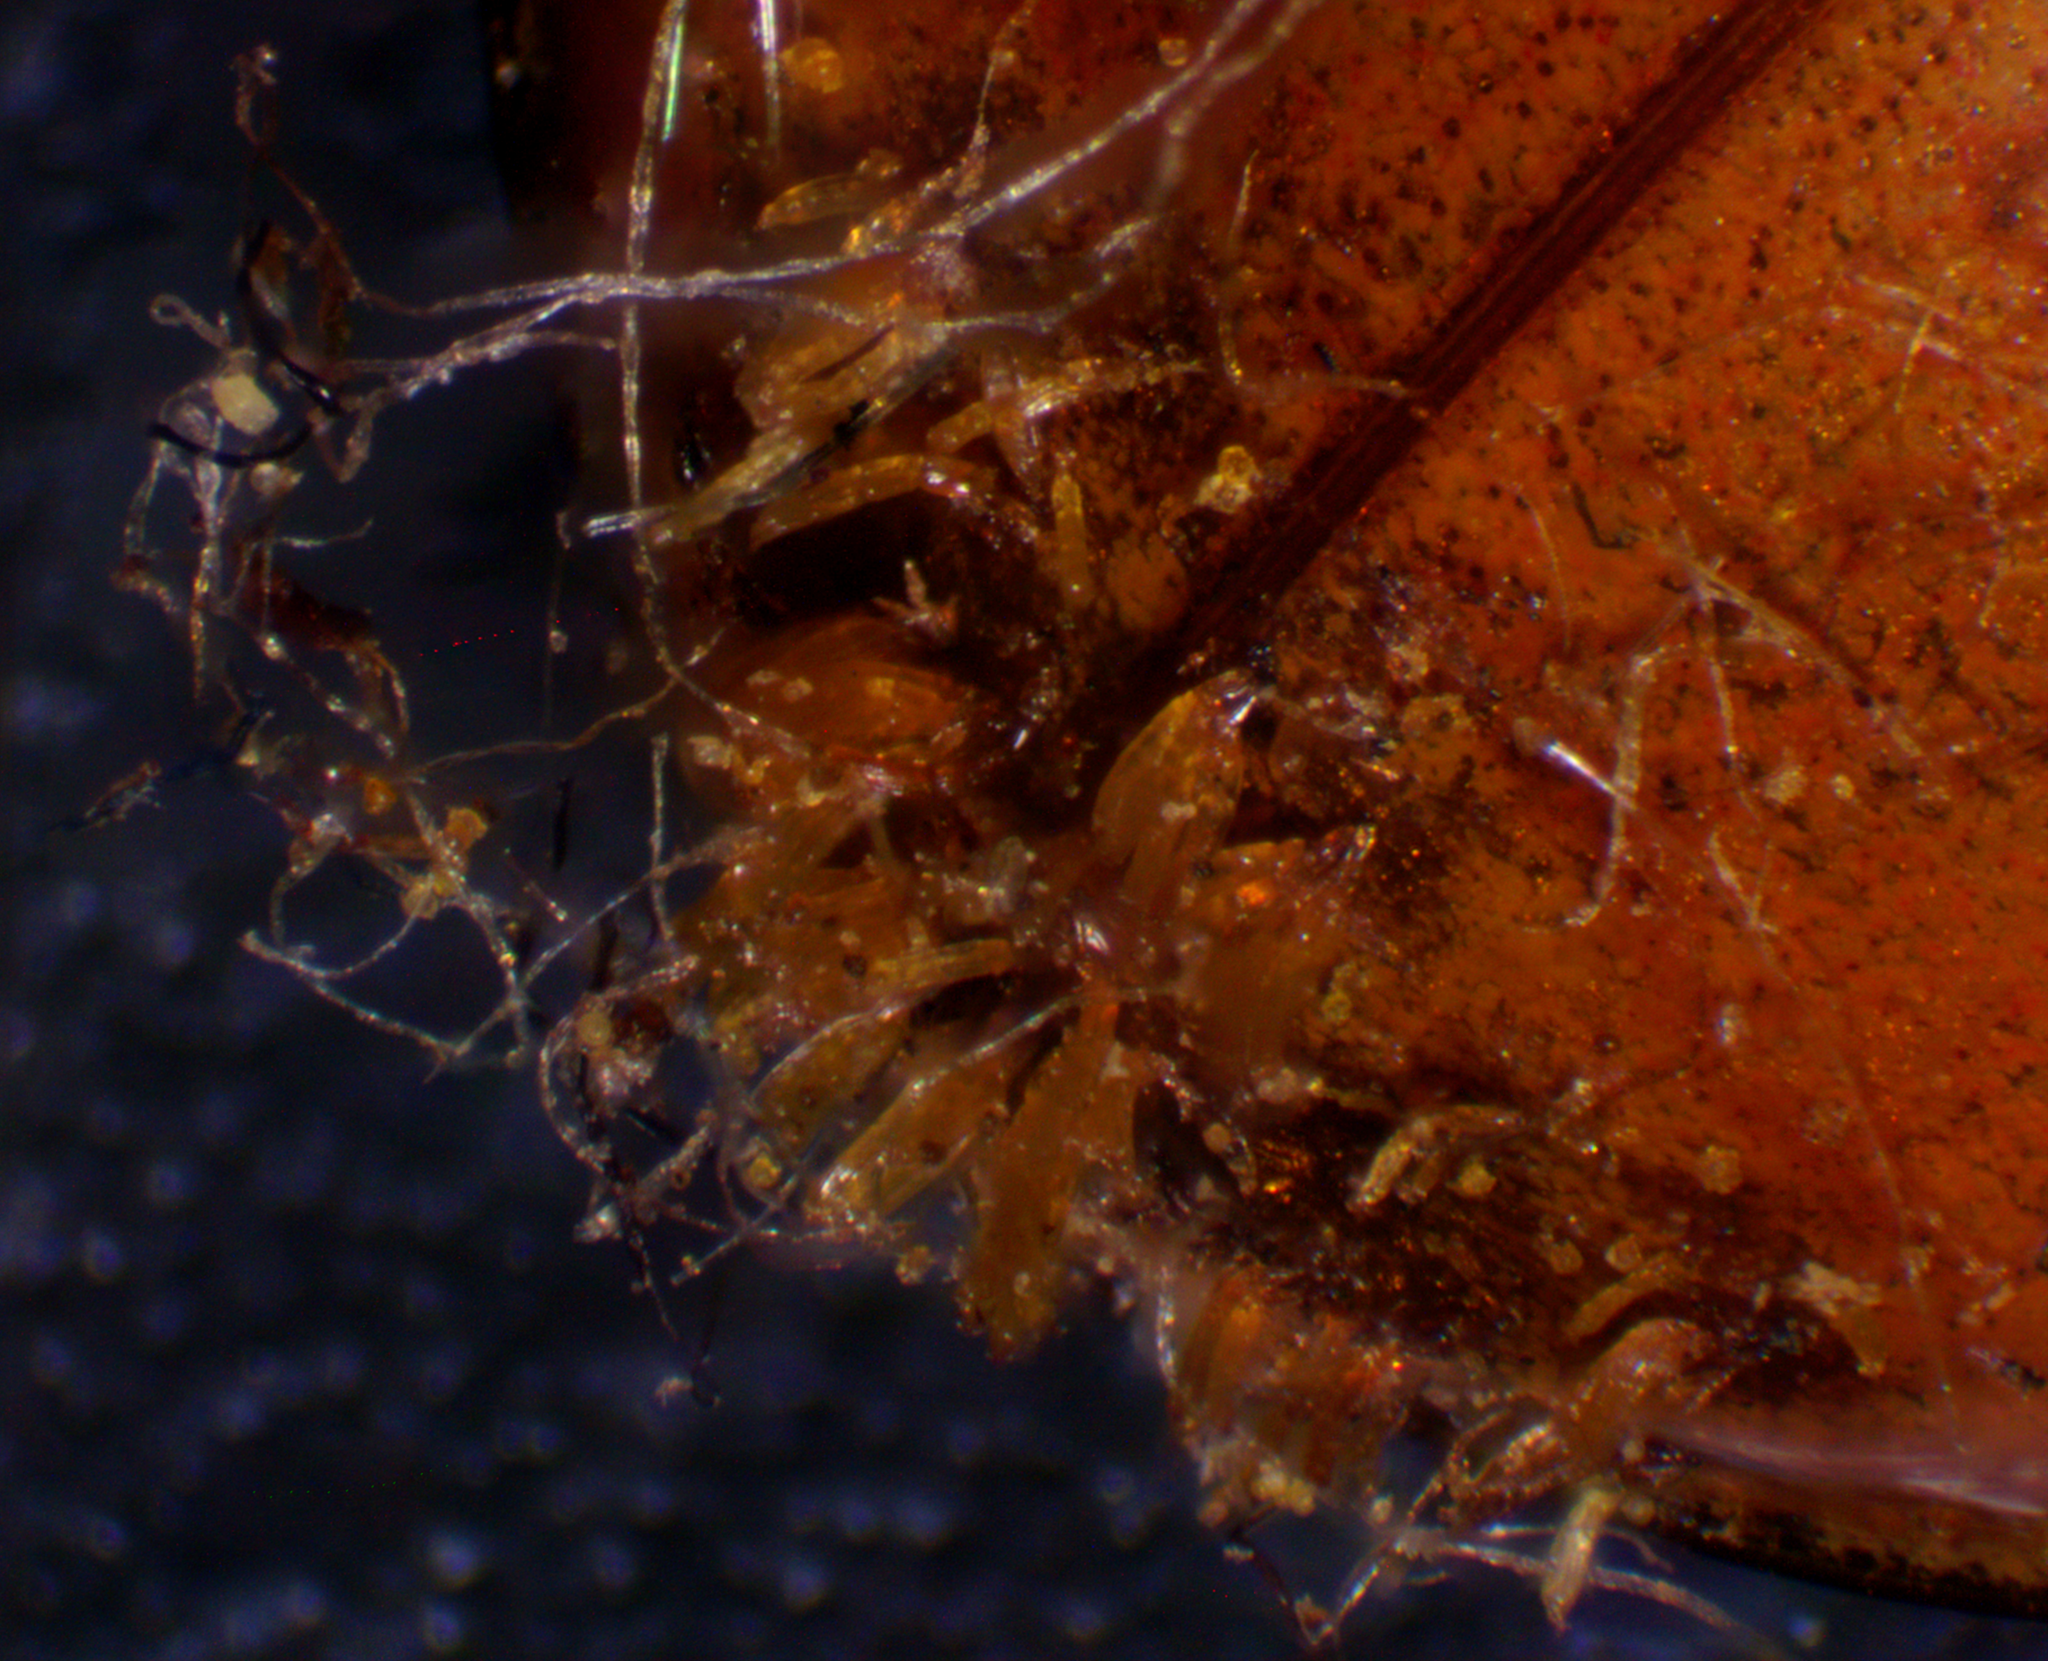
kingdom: Fungi
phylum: Ascomycota
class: Laboulbeniomycetes
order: Laboulbeniales
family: Laboulbeniaceae
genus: Hesperomyces
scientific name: Hesperomyces harmoniae
